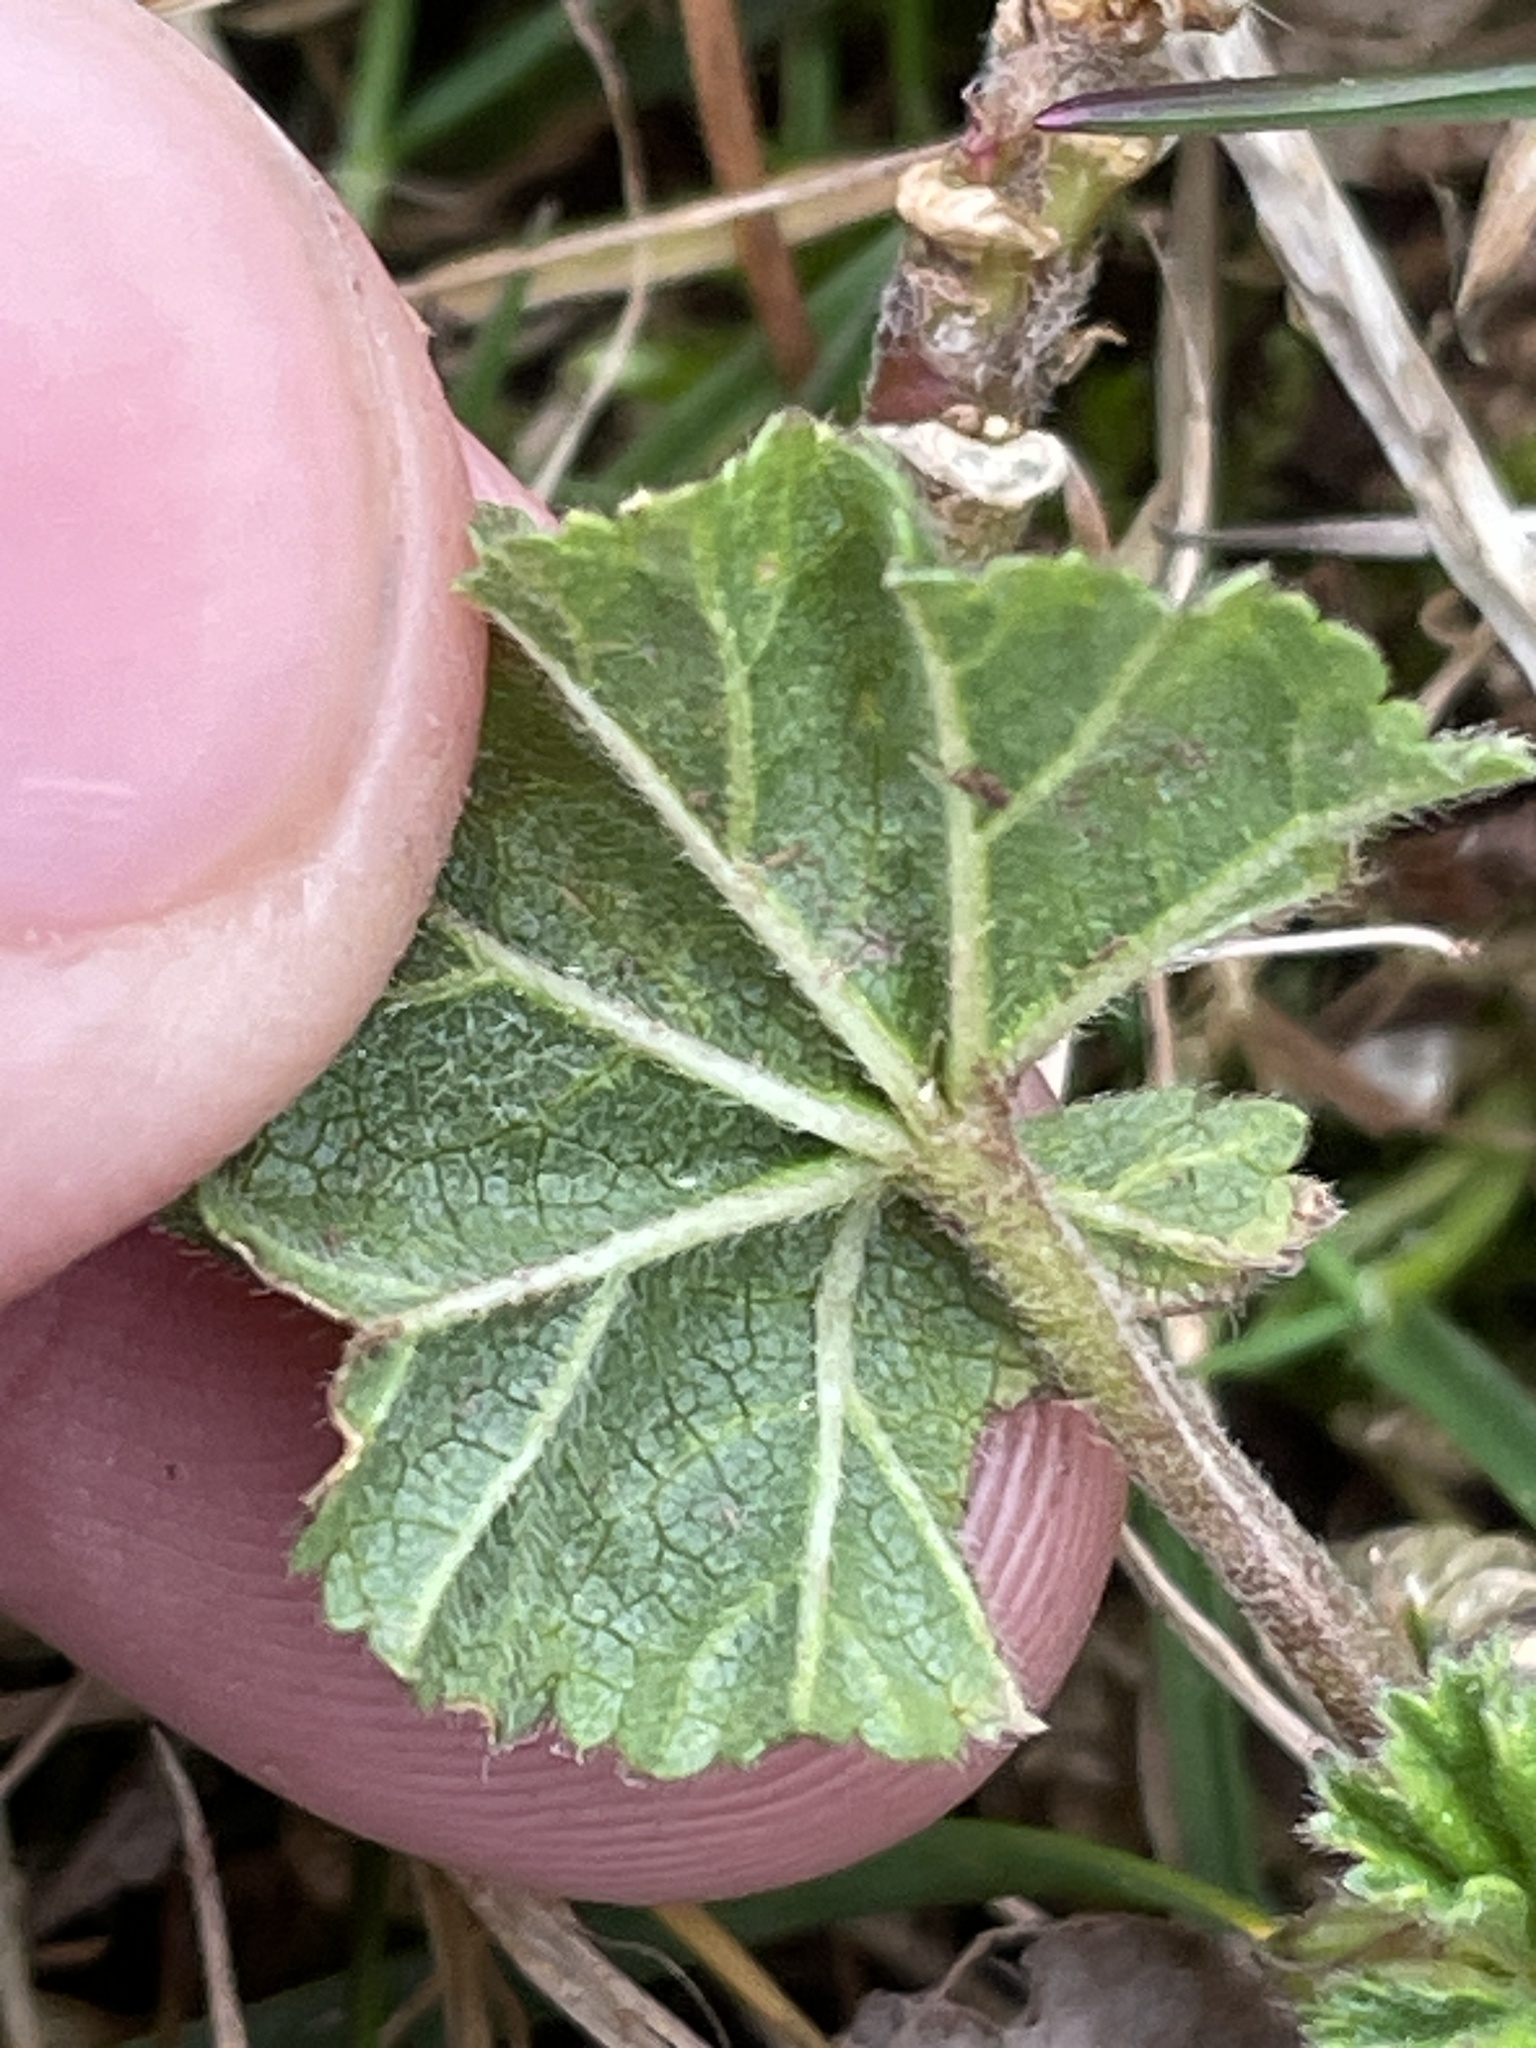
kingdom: Plantae
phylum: Tracheophyta
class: Magnoliopsida
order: Malvales
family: Malvaceae
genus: Malva
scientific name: Malva neglecta
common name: Common mallow
